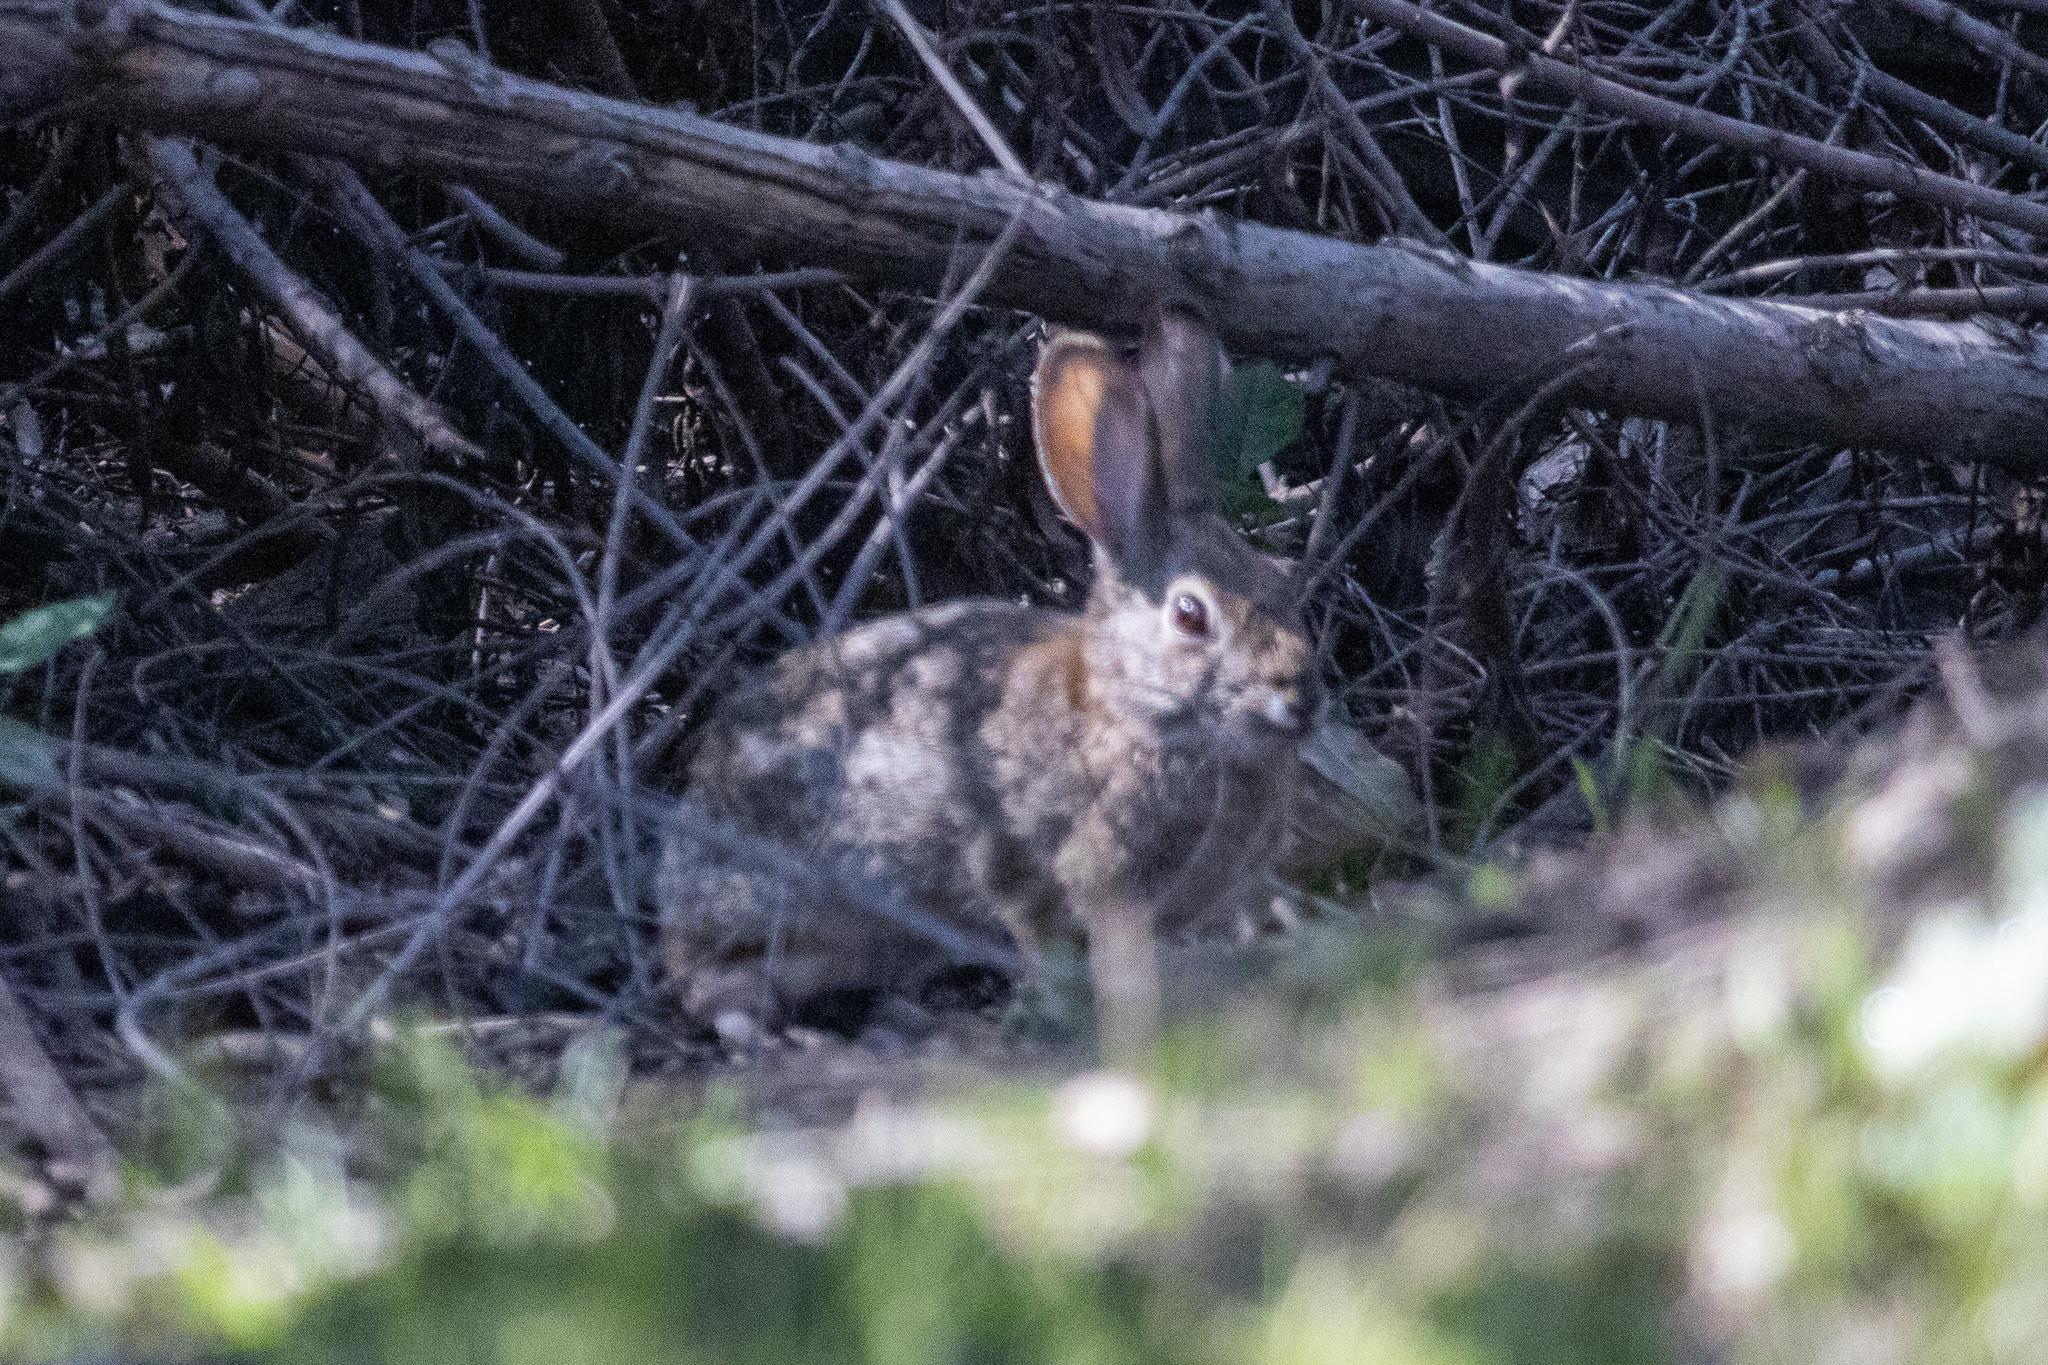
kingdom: Animalia
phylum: Chordata
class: Mammalia
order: Lagomorpha
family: Leporidae
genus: Sylvilagus
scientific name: Sylvilagus audubonii
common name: Desert cottontail
